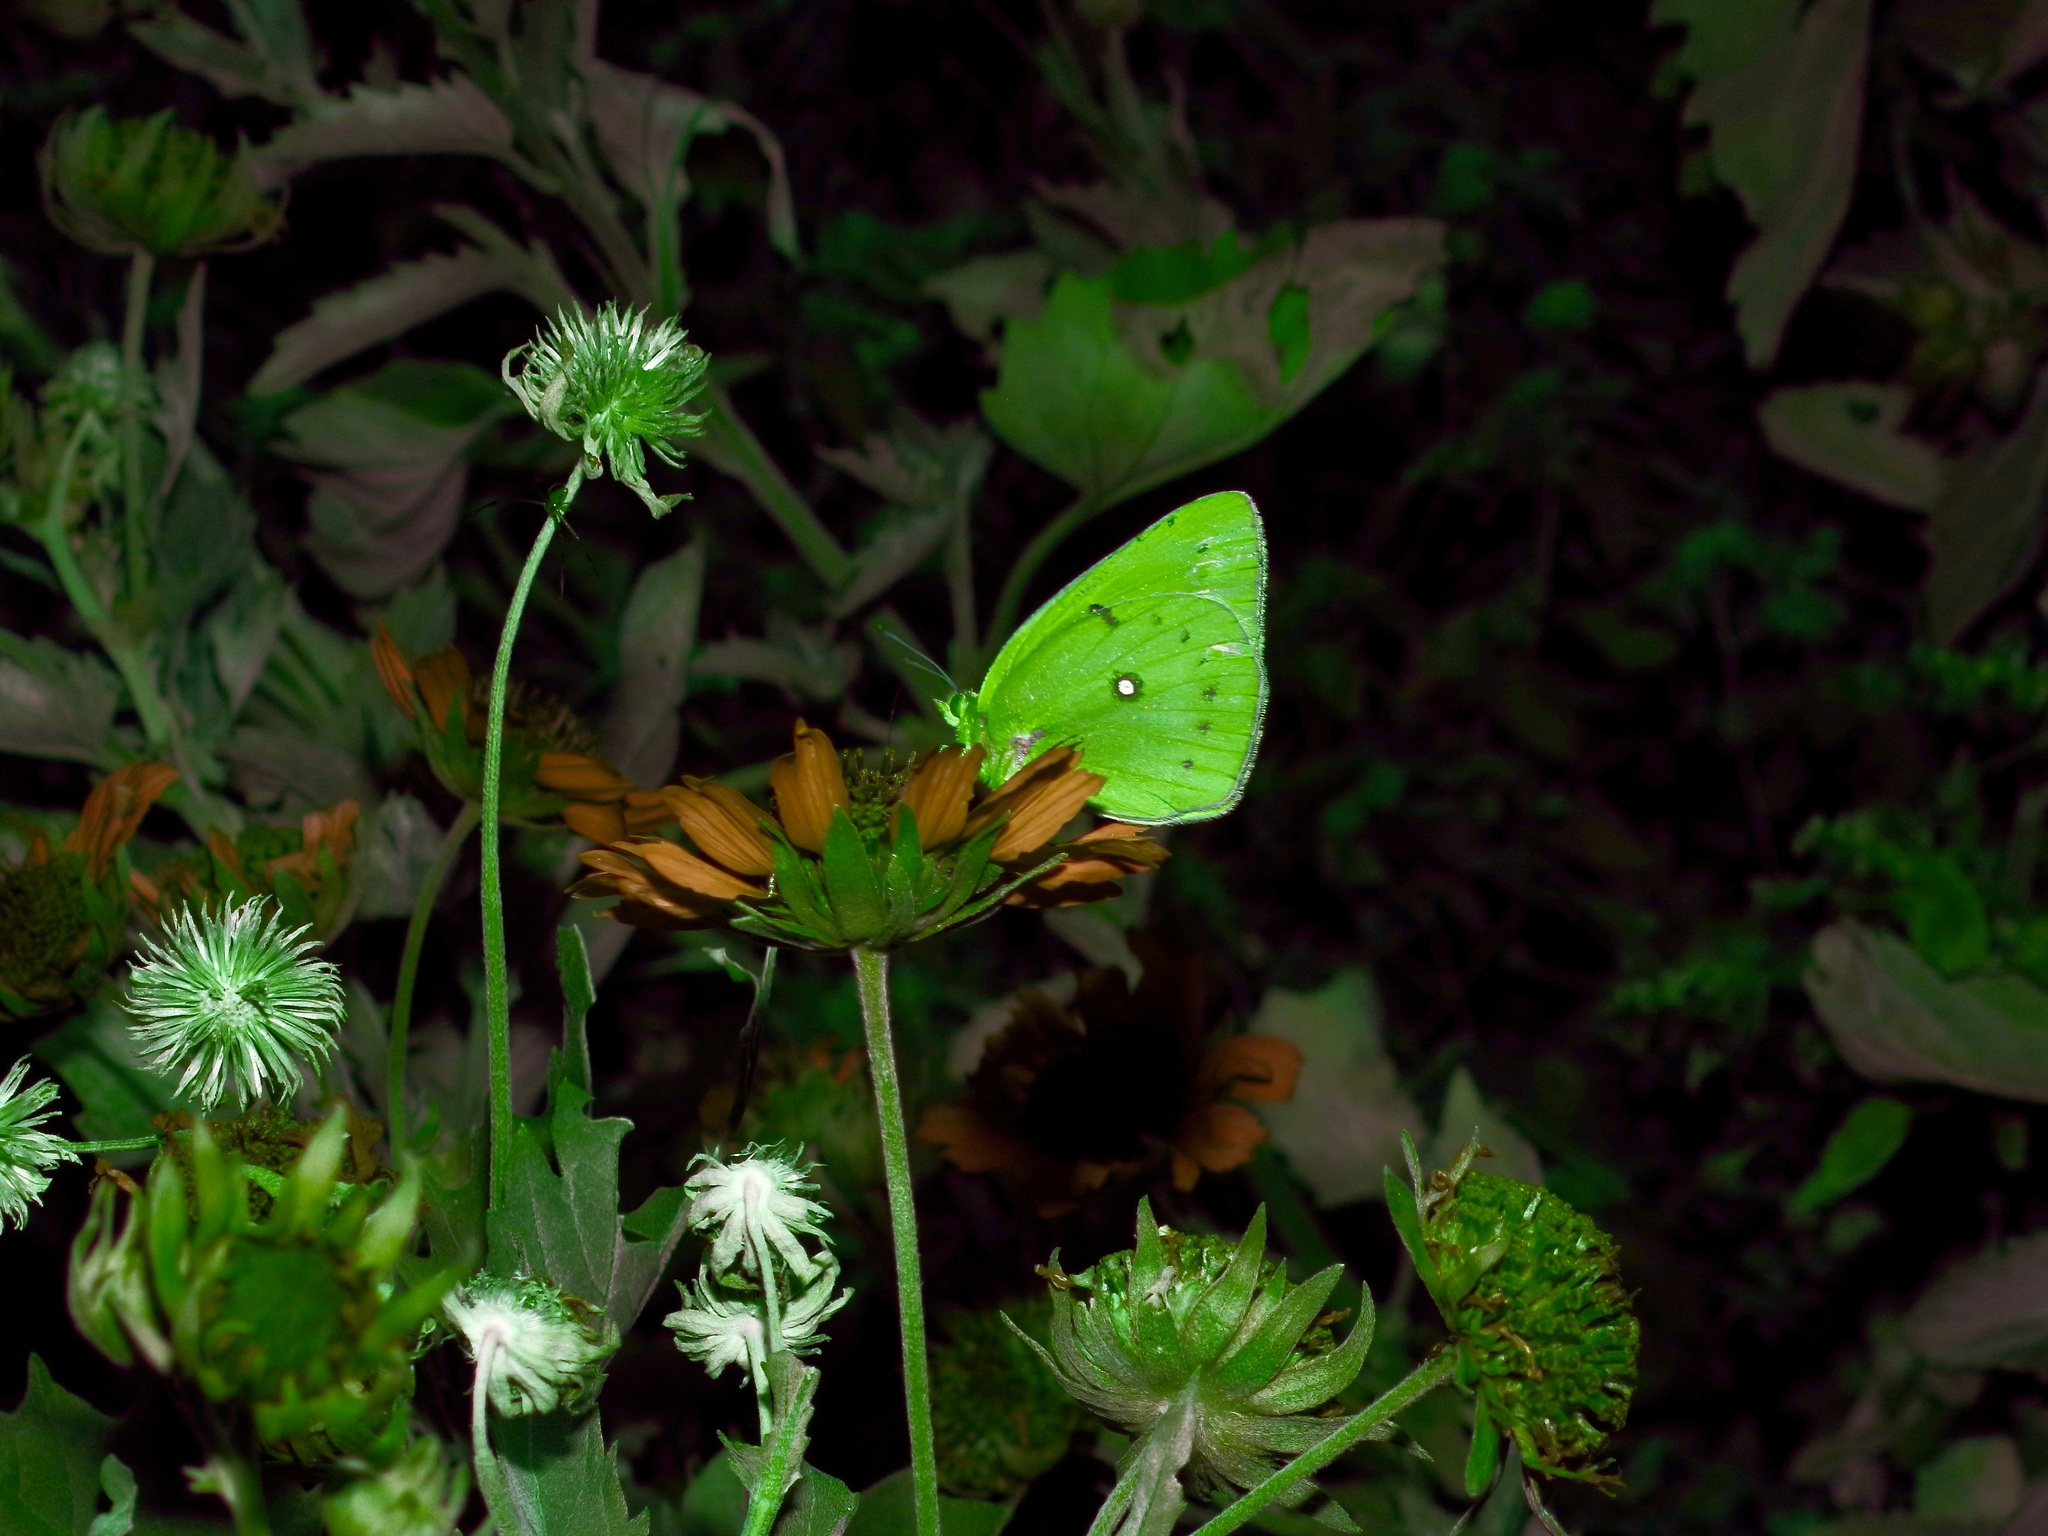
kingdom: Animalia
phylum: Arthropoda
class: Insecta
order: Lepidoptera
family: Pieridae
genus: Colias
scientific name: Colias eurytheme
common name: Alfalfa butterfly
